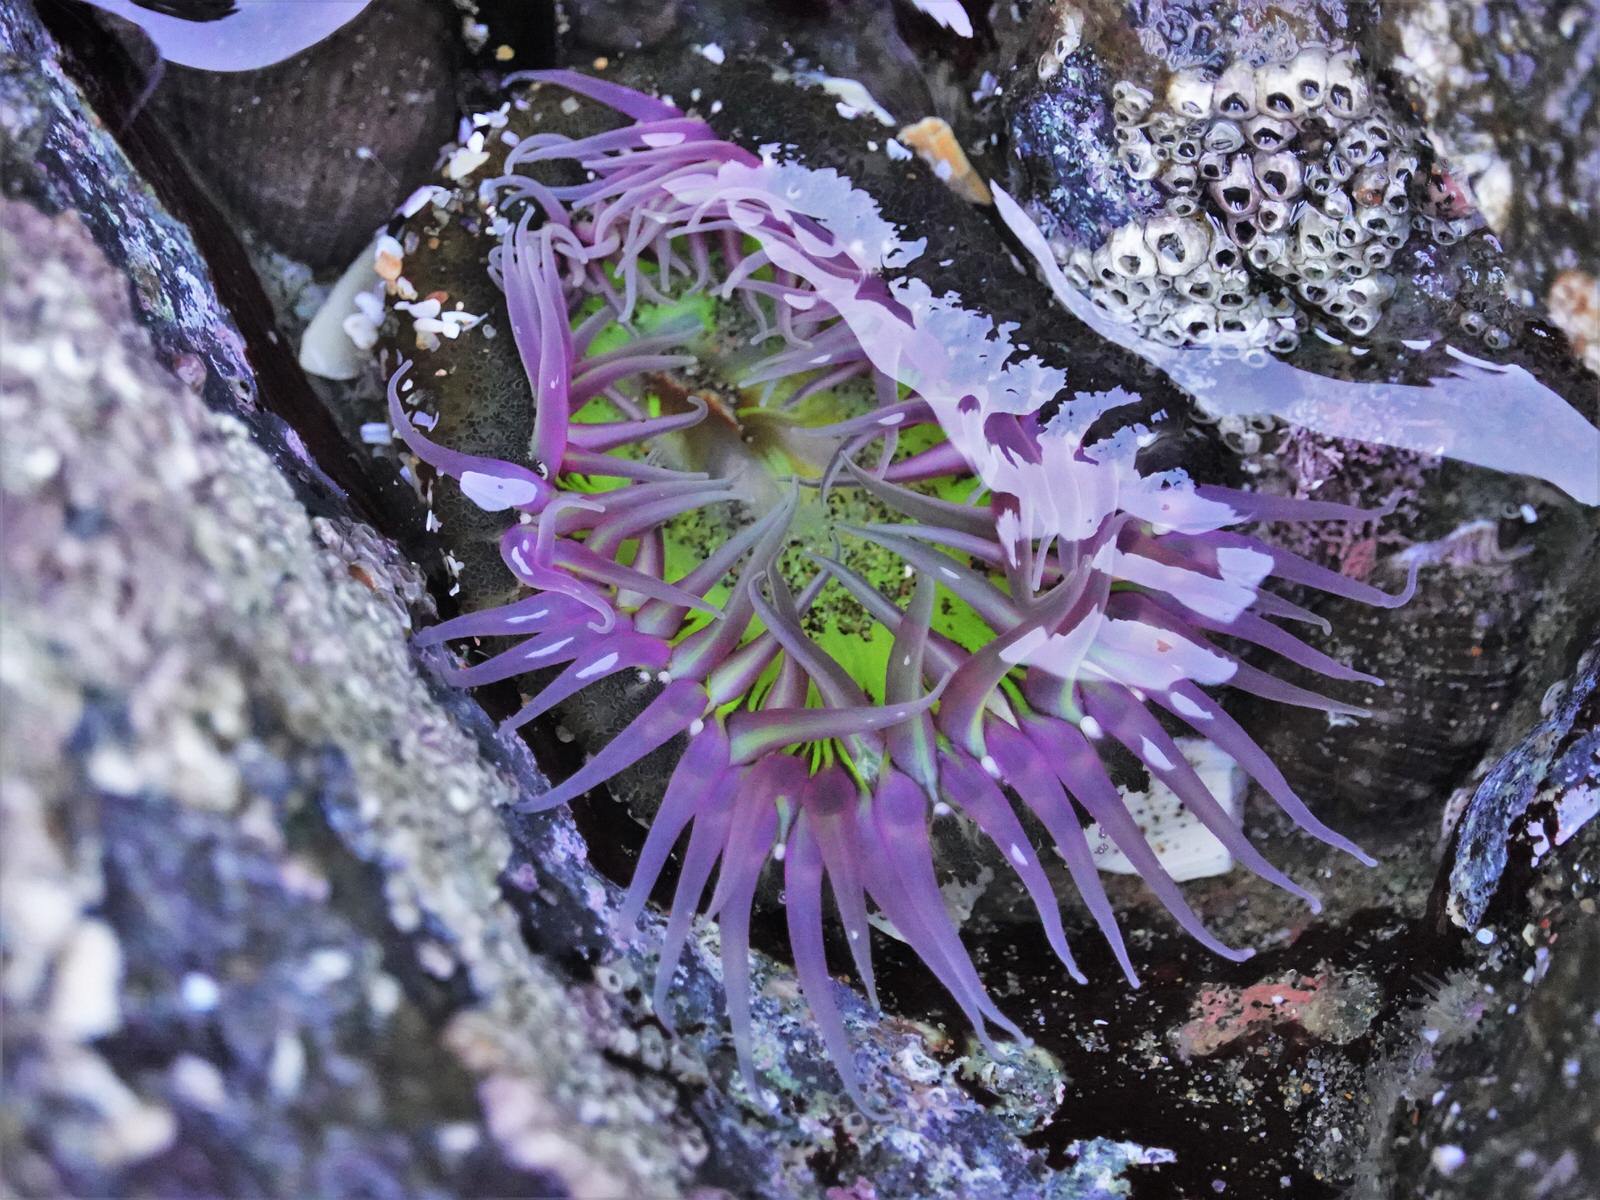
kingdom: Animalia
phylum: Cnidaria
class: Anthozoa
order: Actiniaria
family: Actiniidae
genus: Oulactis
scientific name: Oulactis magna
